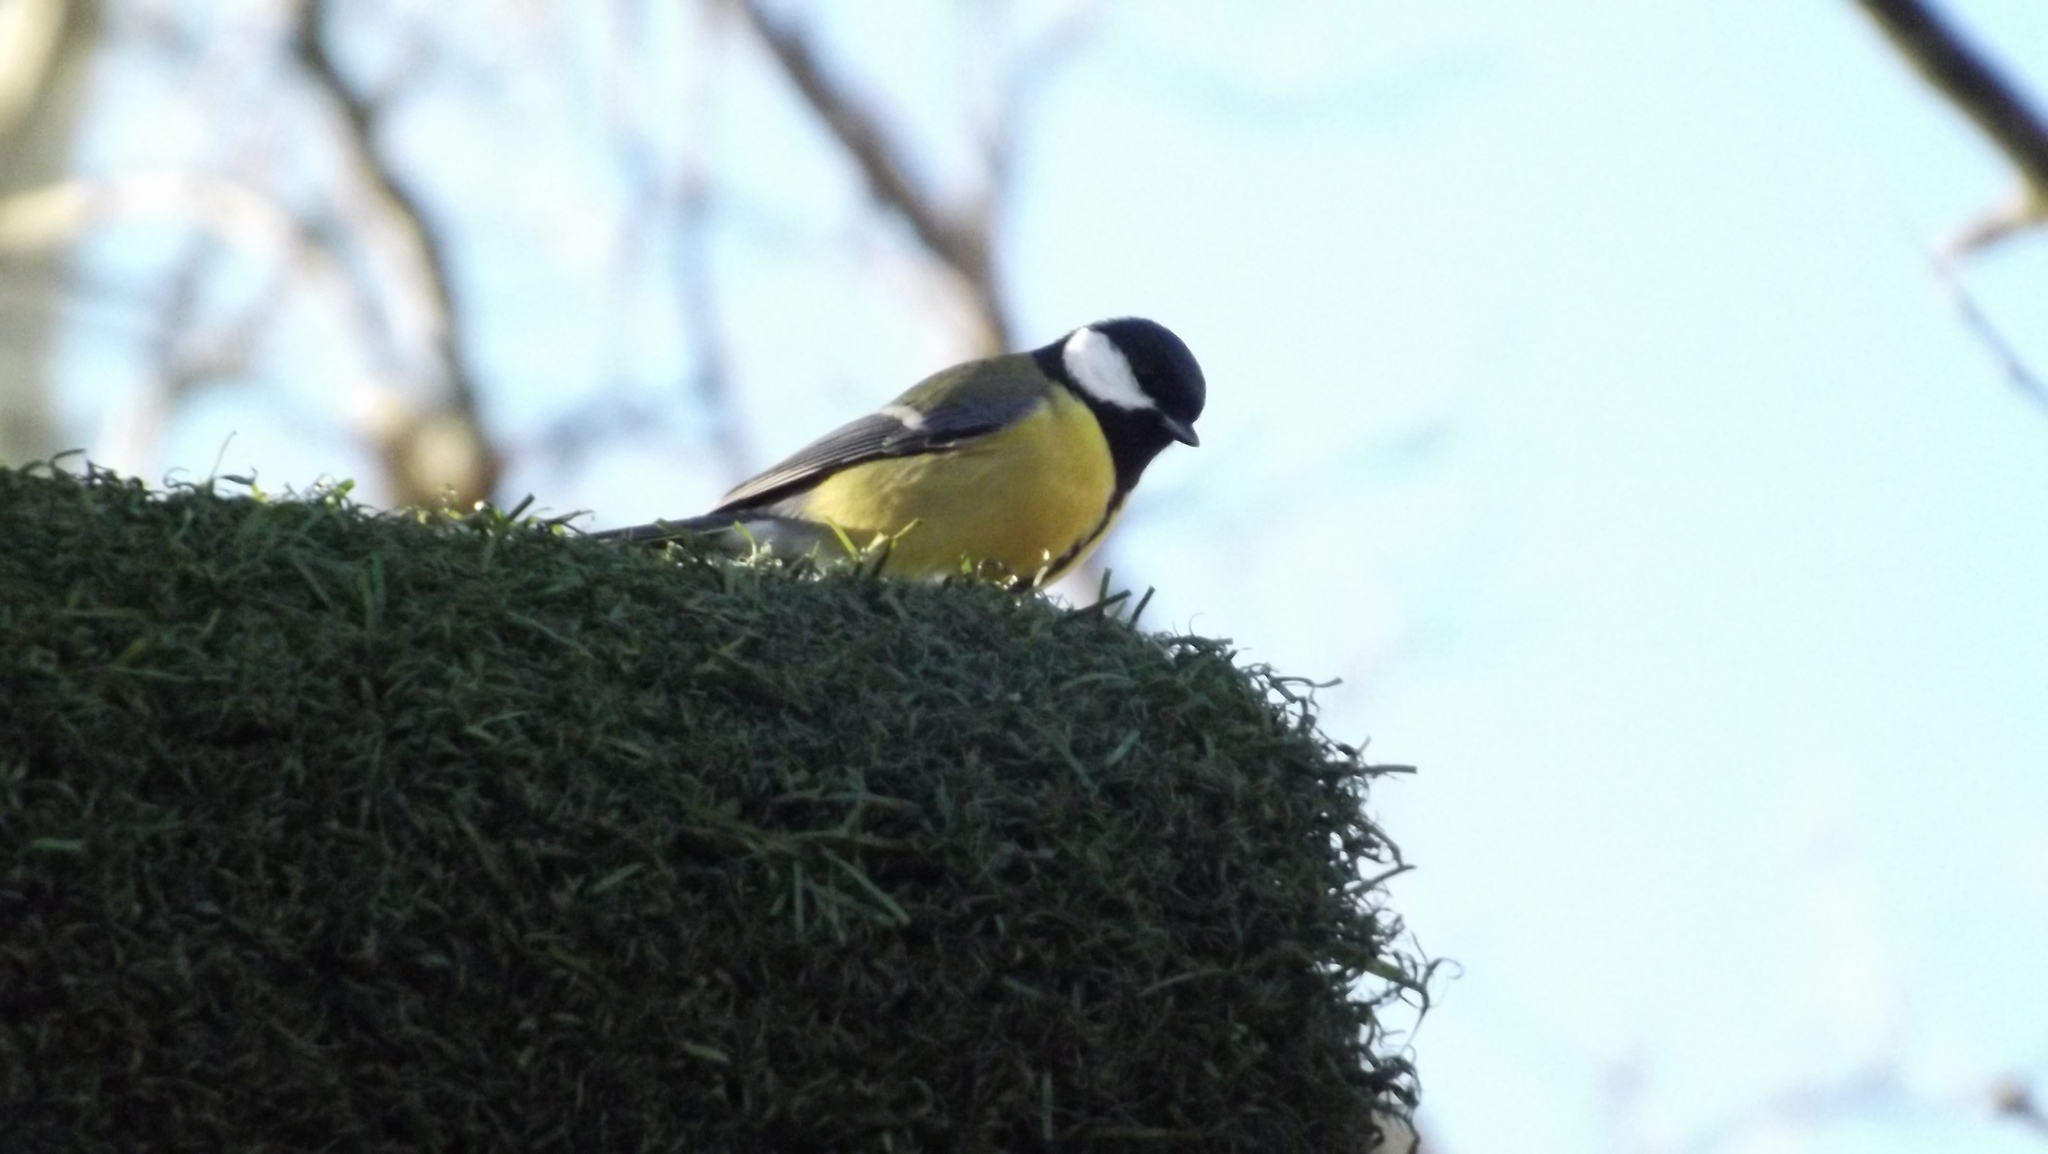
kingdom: Animalia
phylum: Chordata
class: Aves
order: Passeriformes
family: Paridae
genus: Parus
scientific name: Parus major
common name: Great tit
